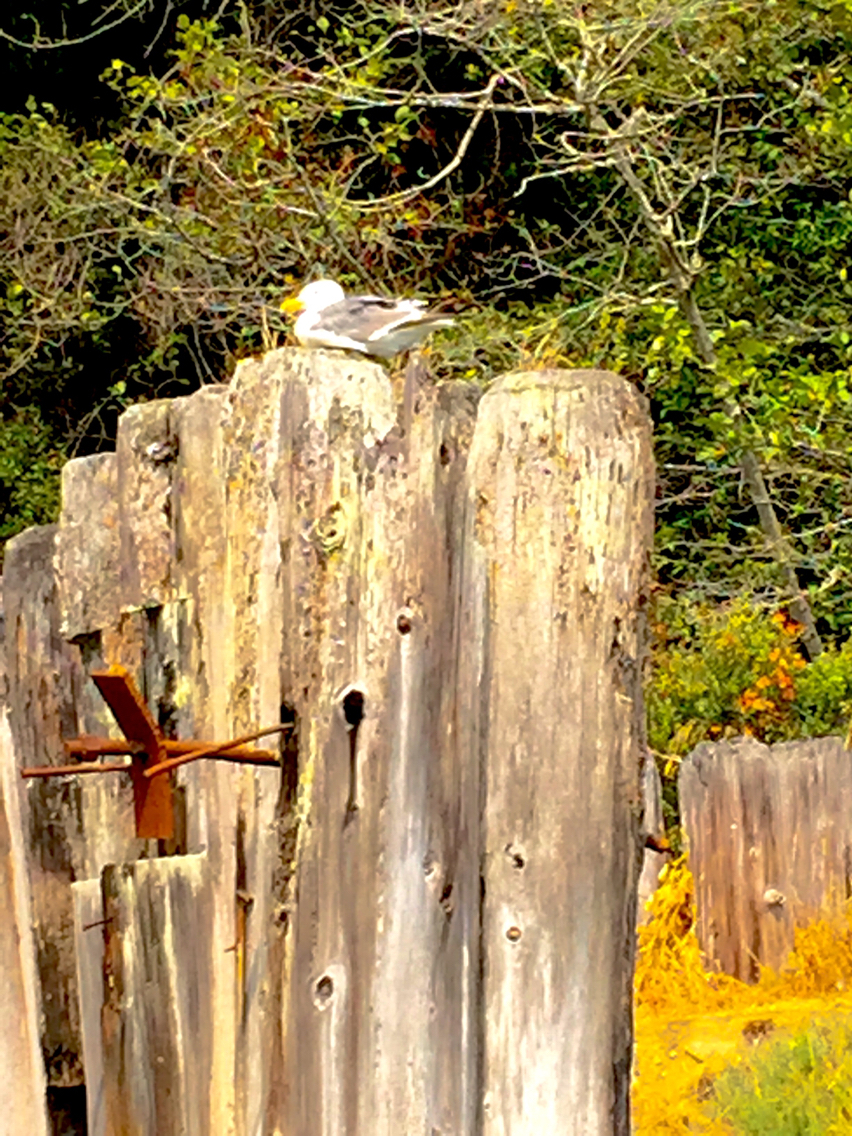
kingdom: Animalia
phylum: Chordata
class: Aves
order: Charadriiformes
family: Laridae
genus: Larus
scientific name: Larus occidentalis
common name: Western gull
